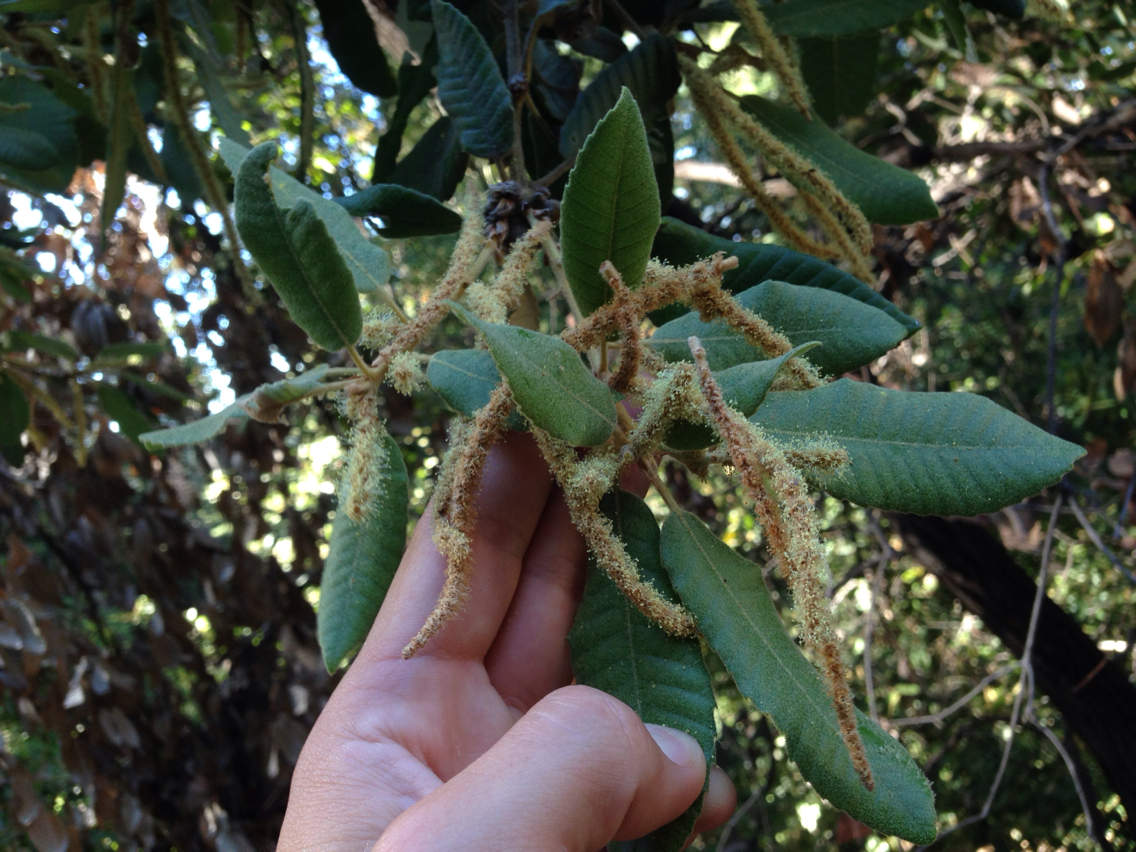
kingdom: Plantae
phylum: Tracheophyta
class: Magnoliopsida
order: Fagales
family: Fagaceae
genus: Notholithocarpus
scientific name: Notholithocarpus densiflorus
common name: Tan bark oak
